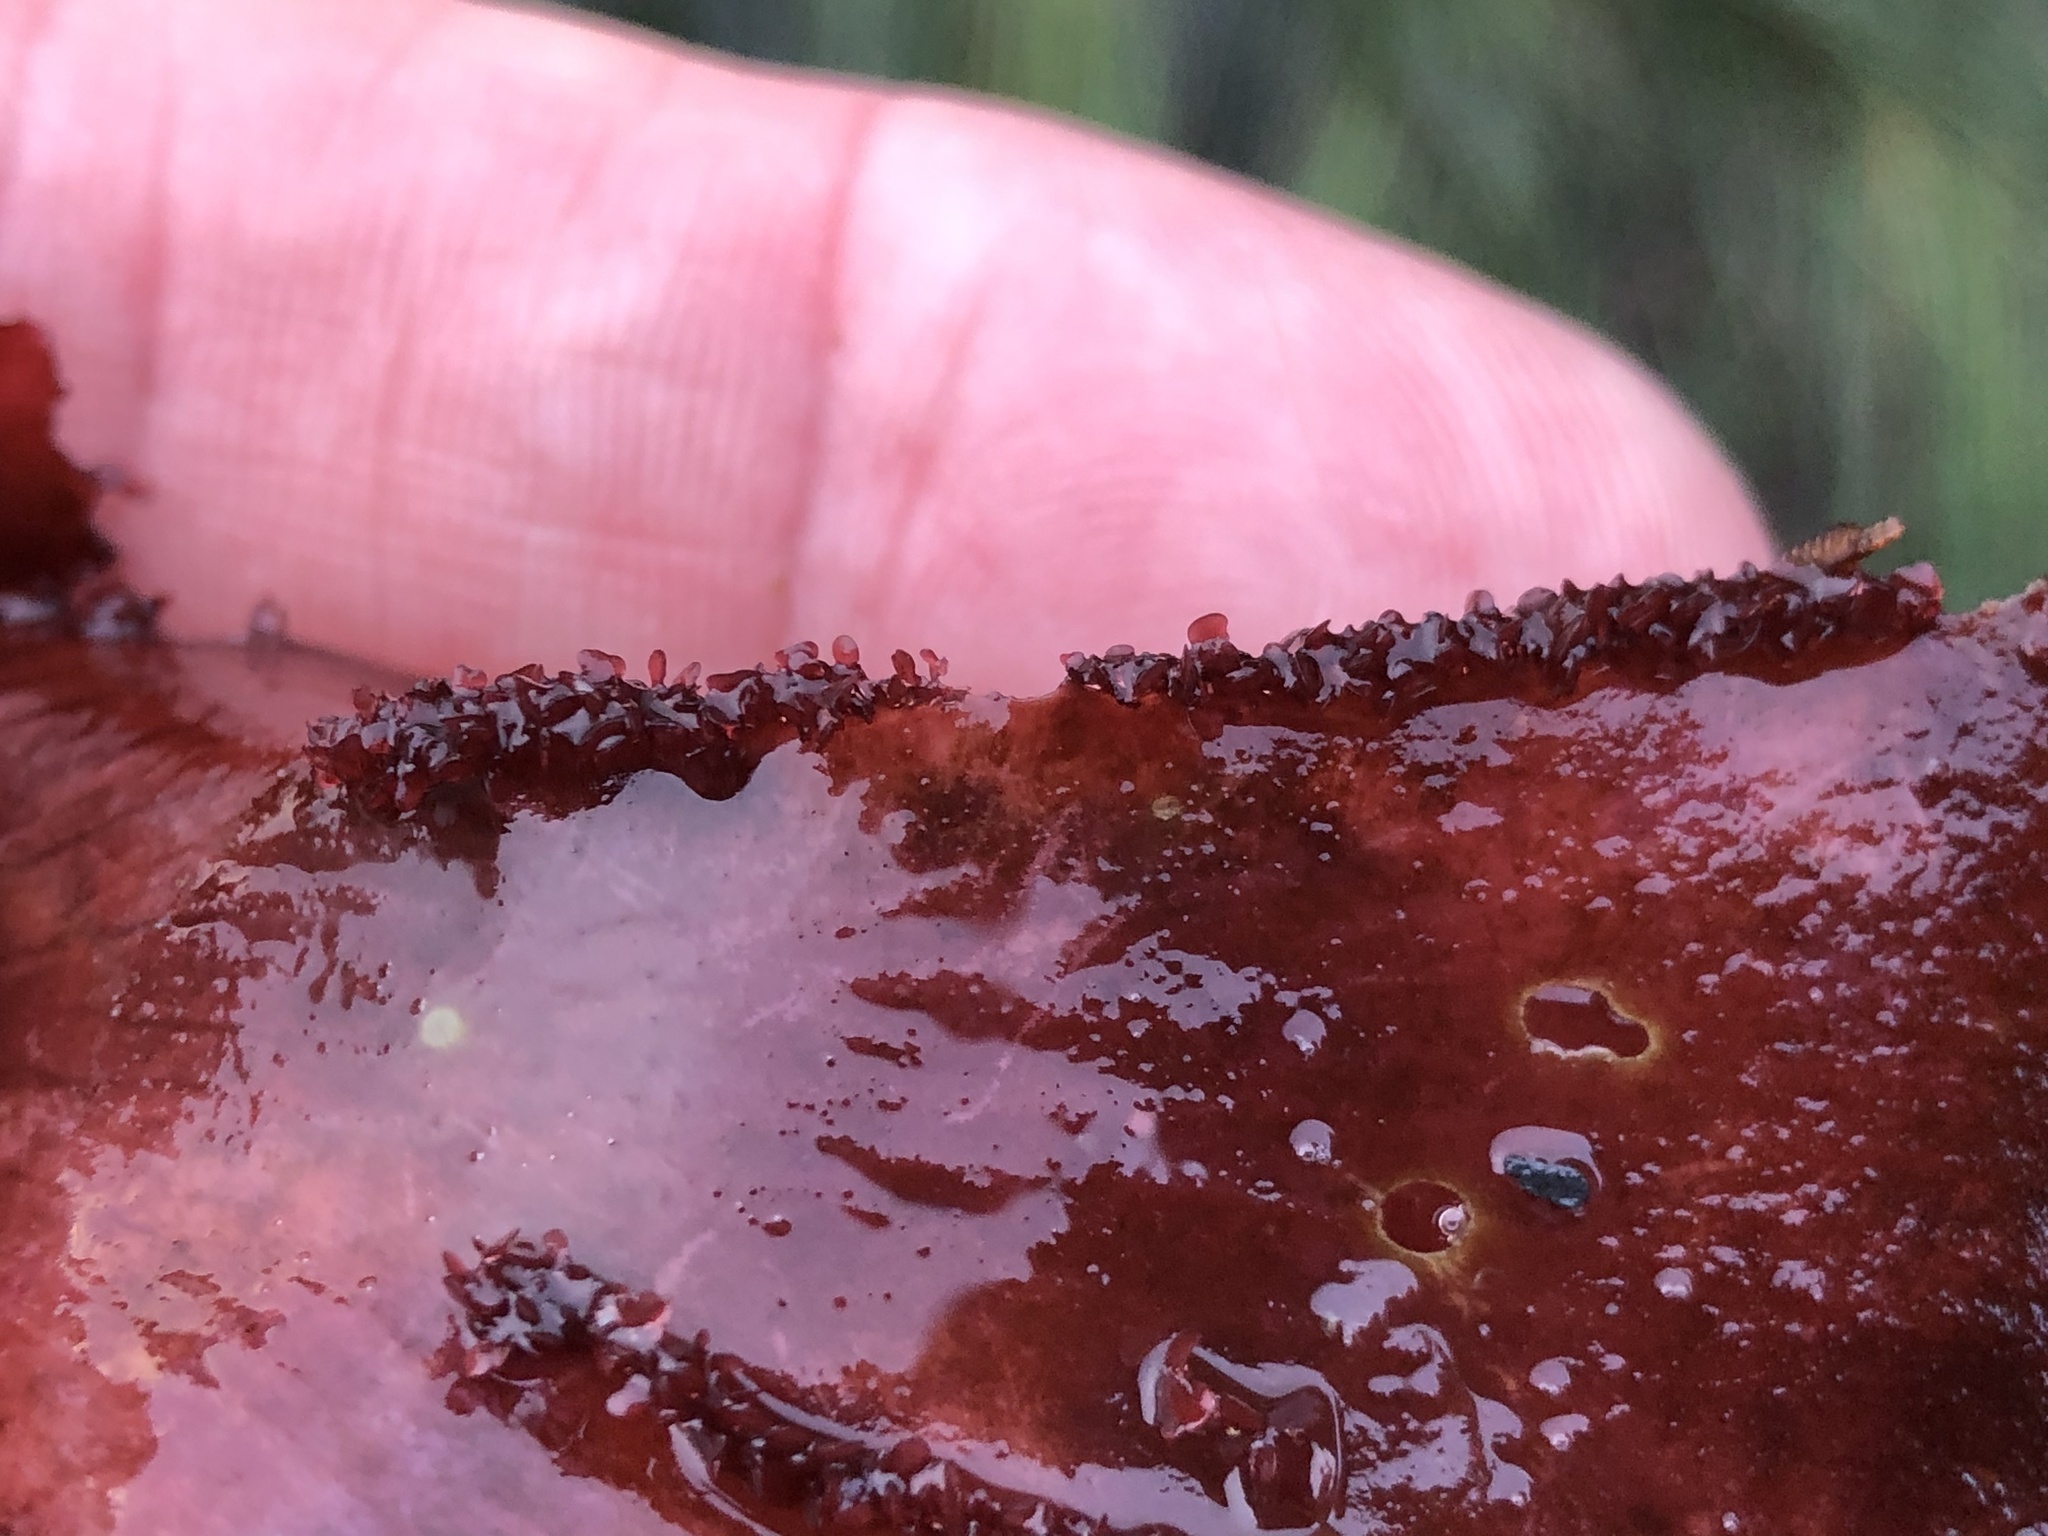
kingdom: Plantae
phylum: Rhodophyta
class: Florideophyceae
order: Ceramiales
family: Delesseriaceae
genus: Cryptopleura
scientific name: Cryptopleura ruprechtiana
